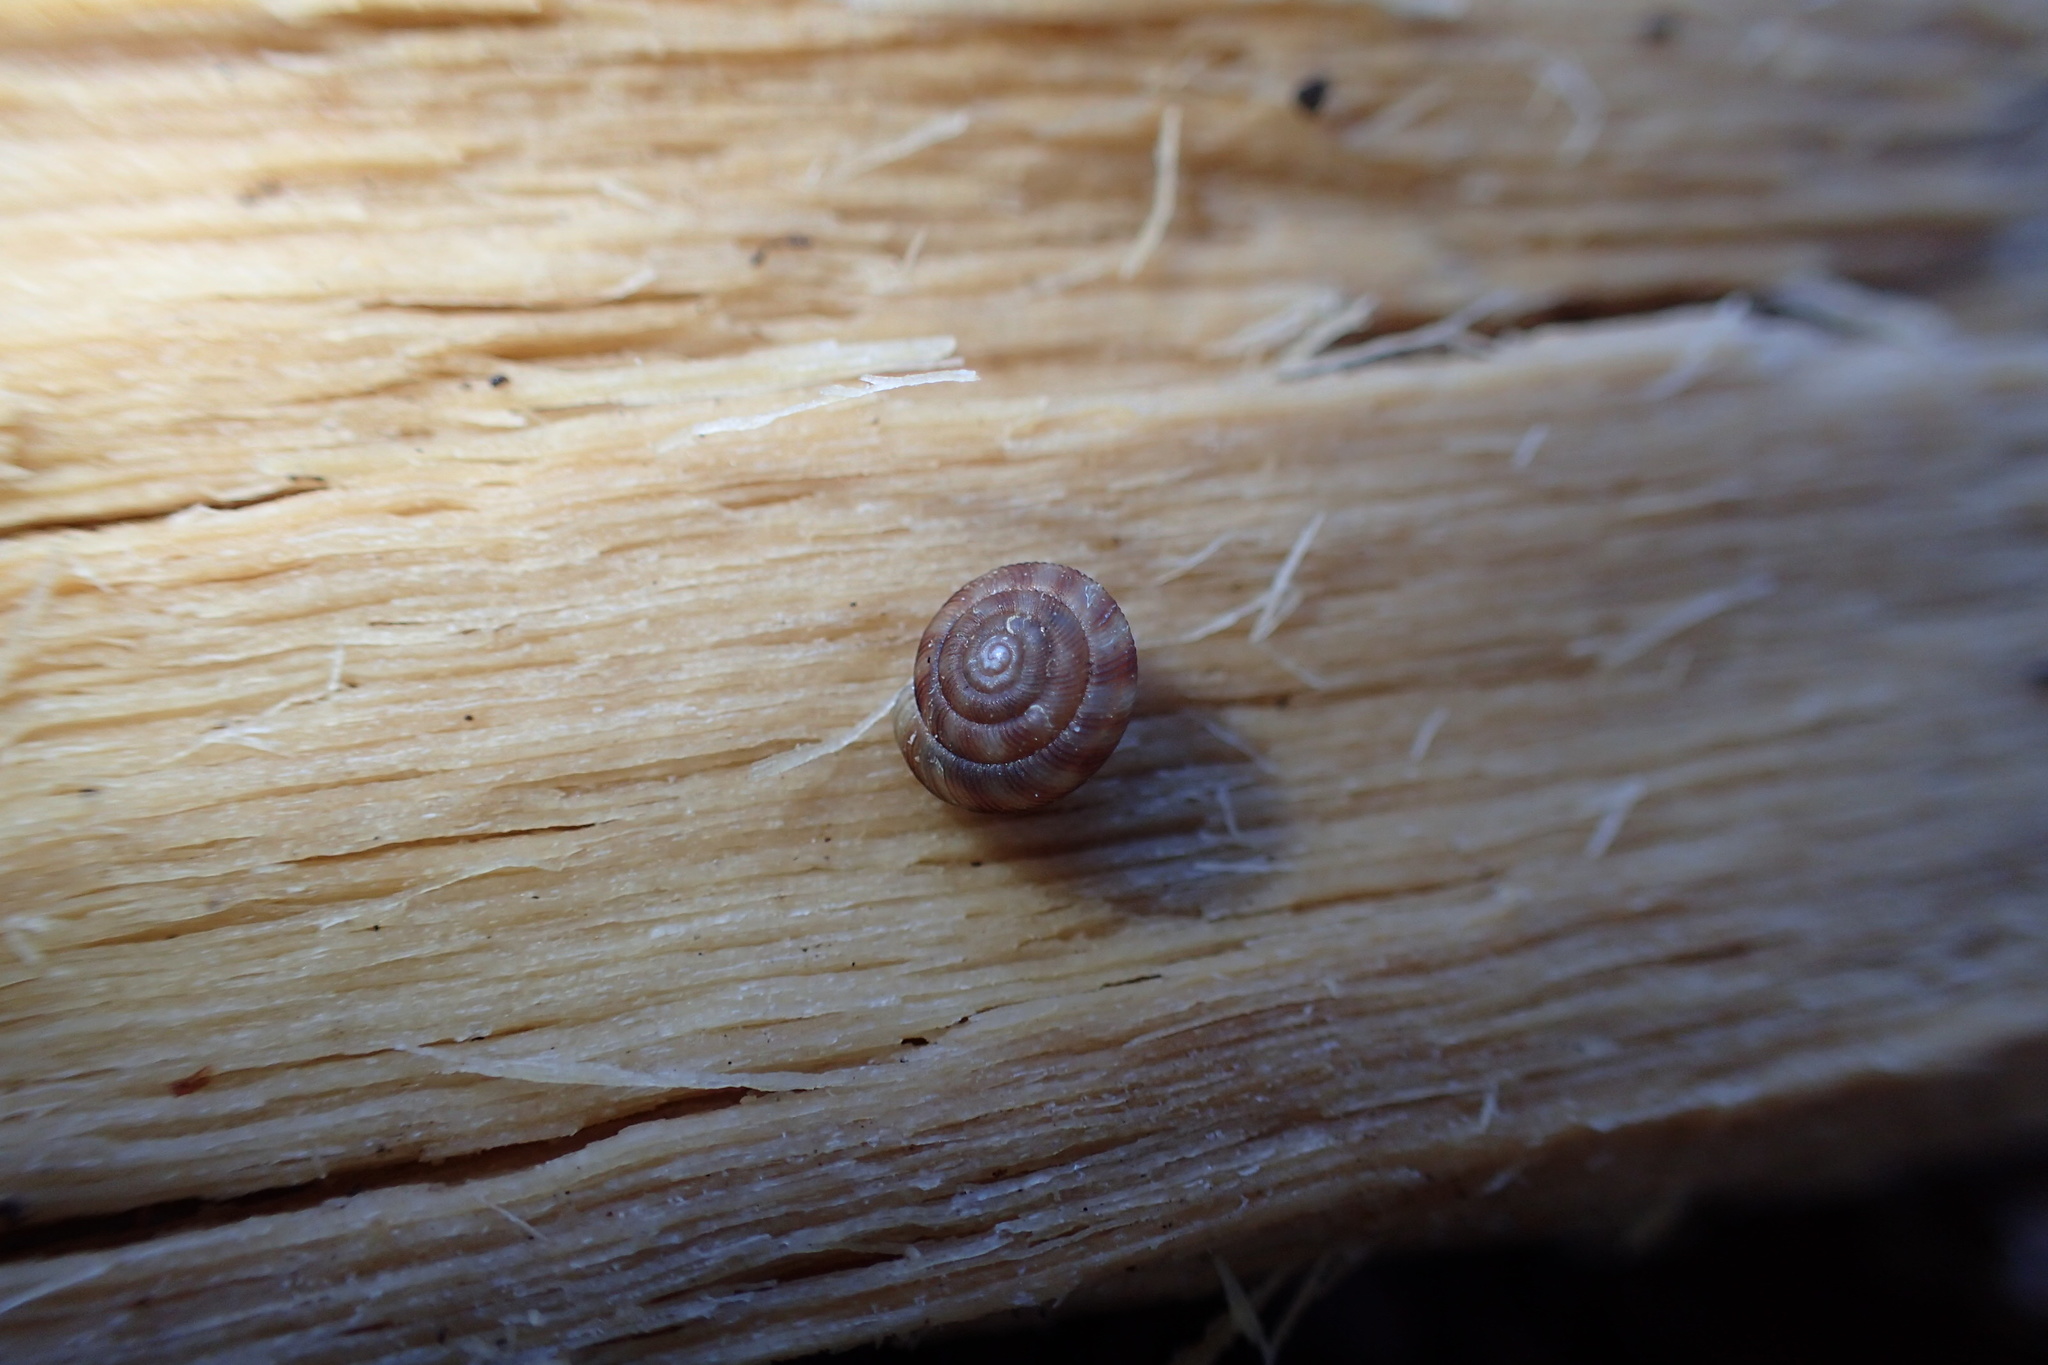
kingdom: Animalia
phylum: Mollusca
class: Gastropoda
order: Stylommatophora
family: Discidae
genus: Discus
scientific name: Discus rotundatus
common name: Rounded snail
